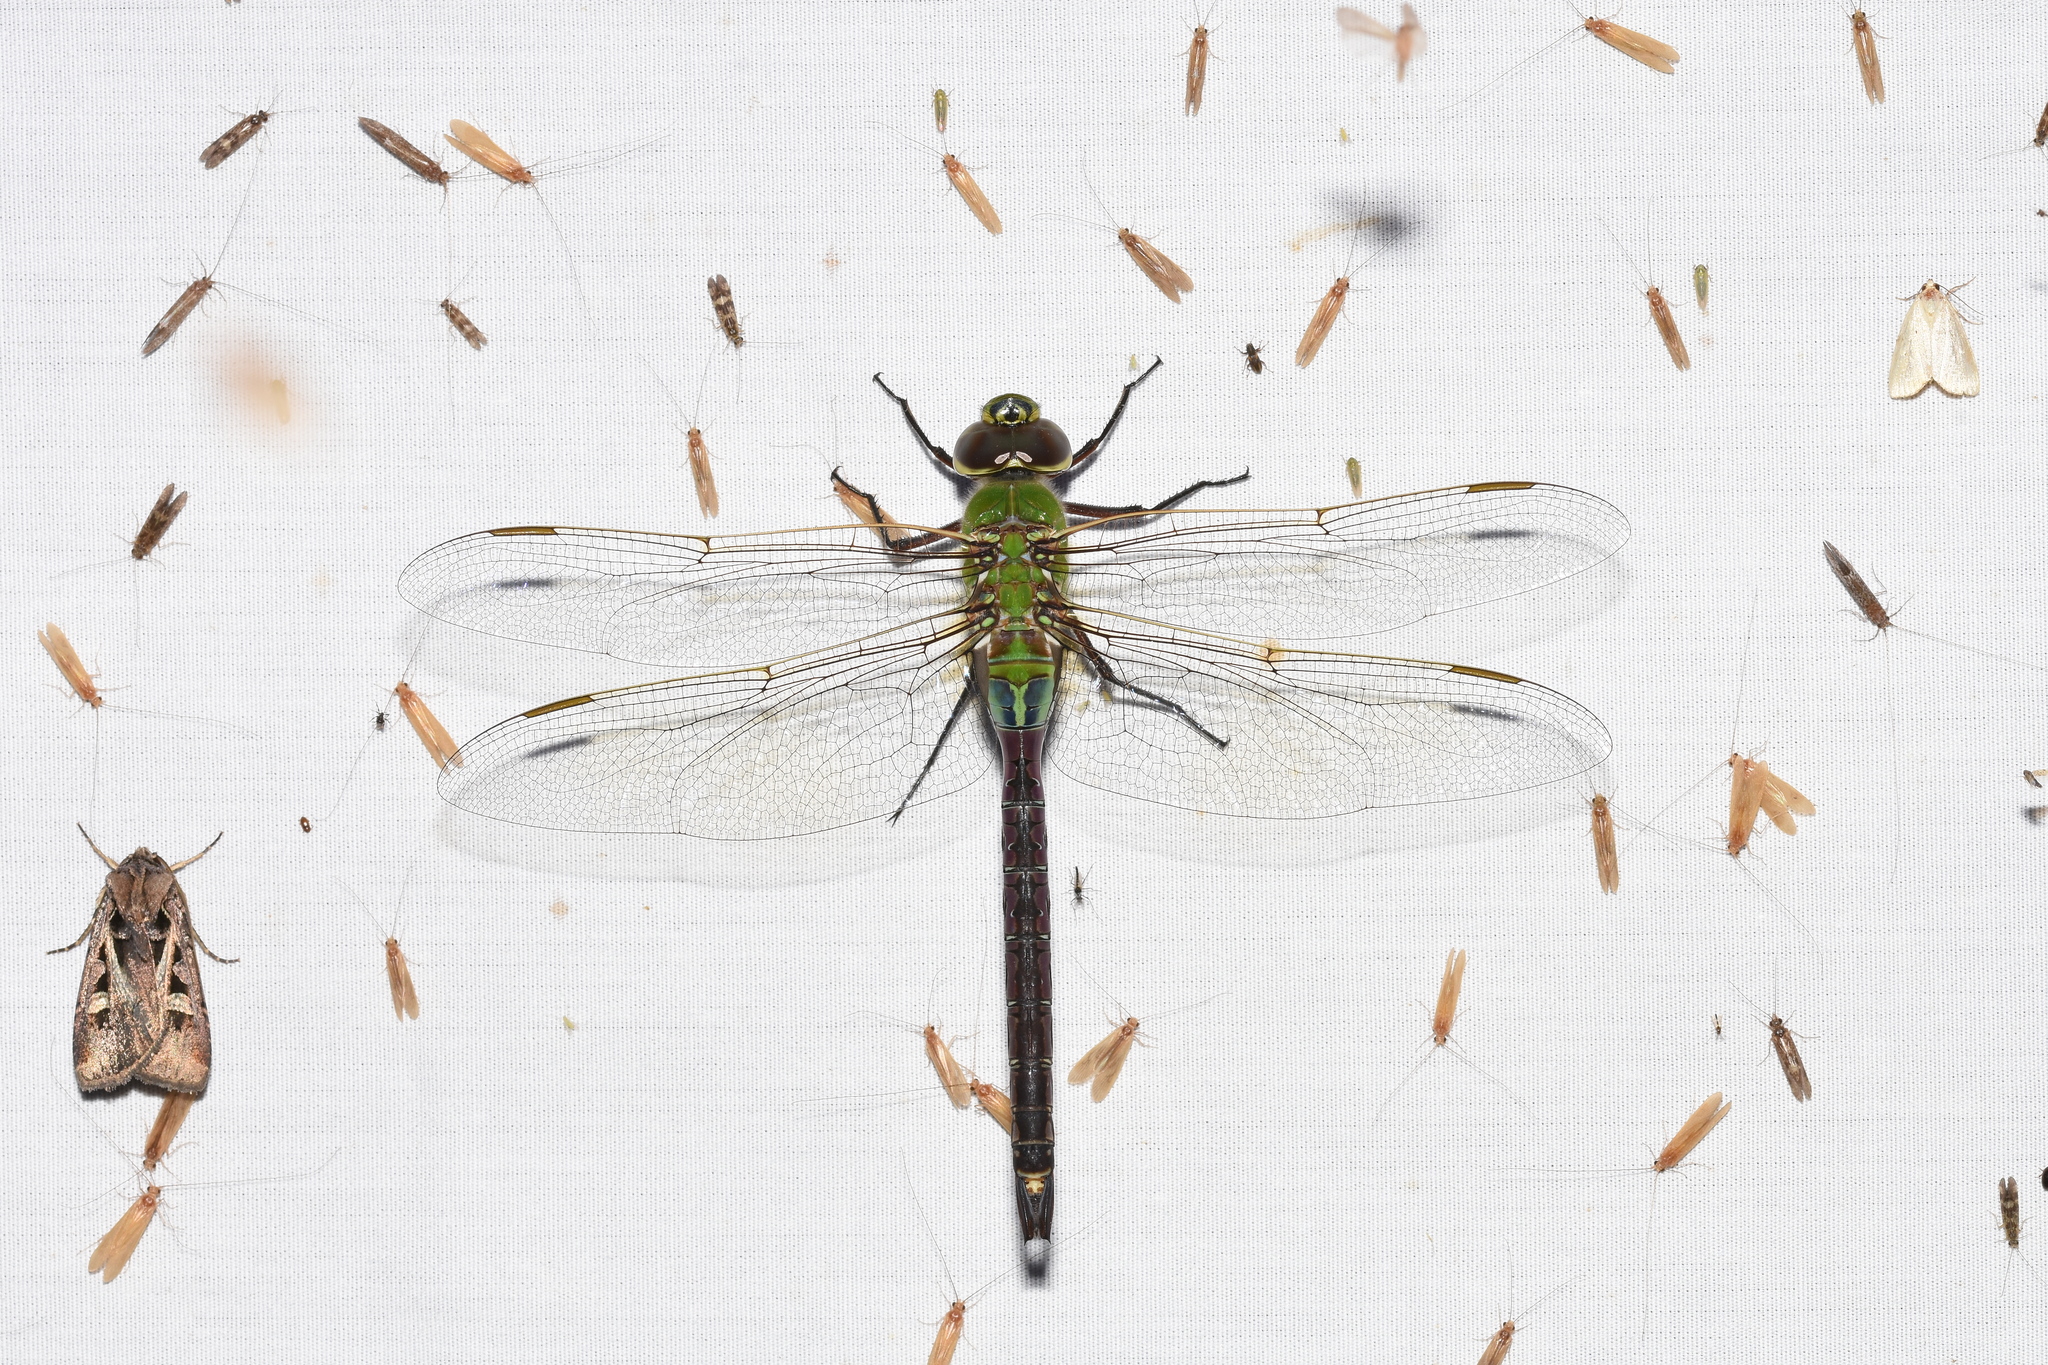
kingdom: Animalia
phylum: Arthropoda
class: Insecta
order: Odonata
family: Aeshnidae
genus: Anax
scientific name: Anax junius
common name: Common green darner
